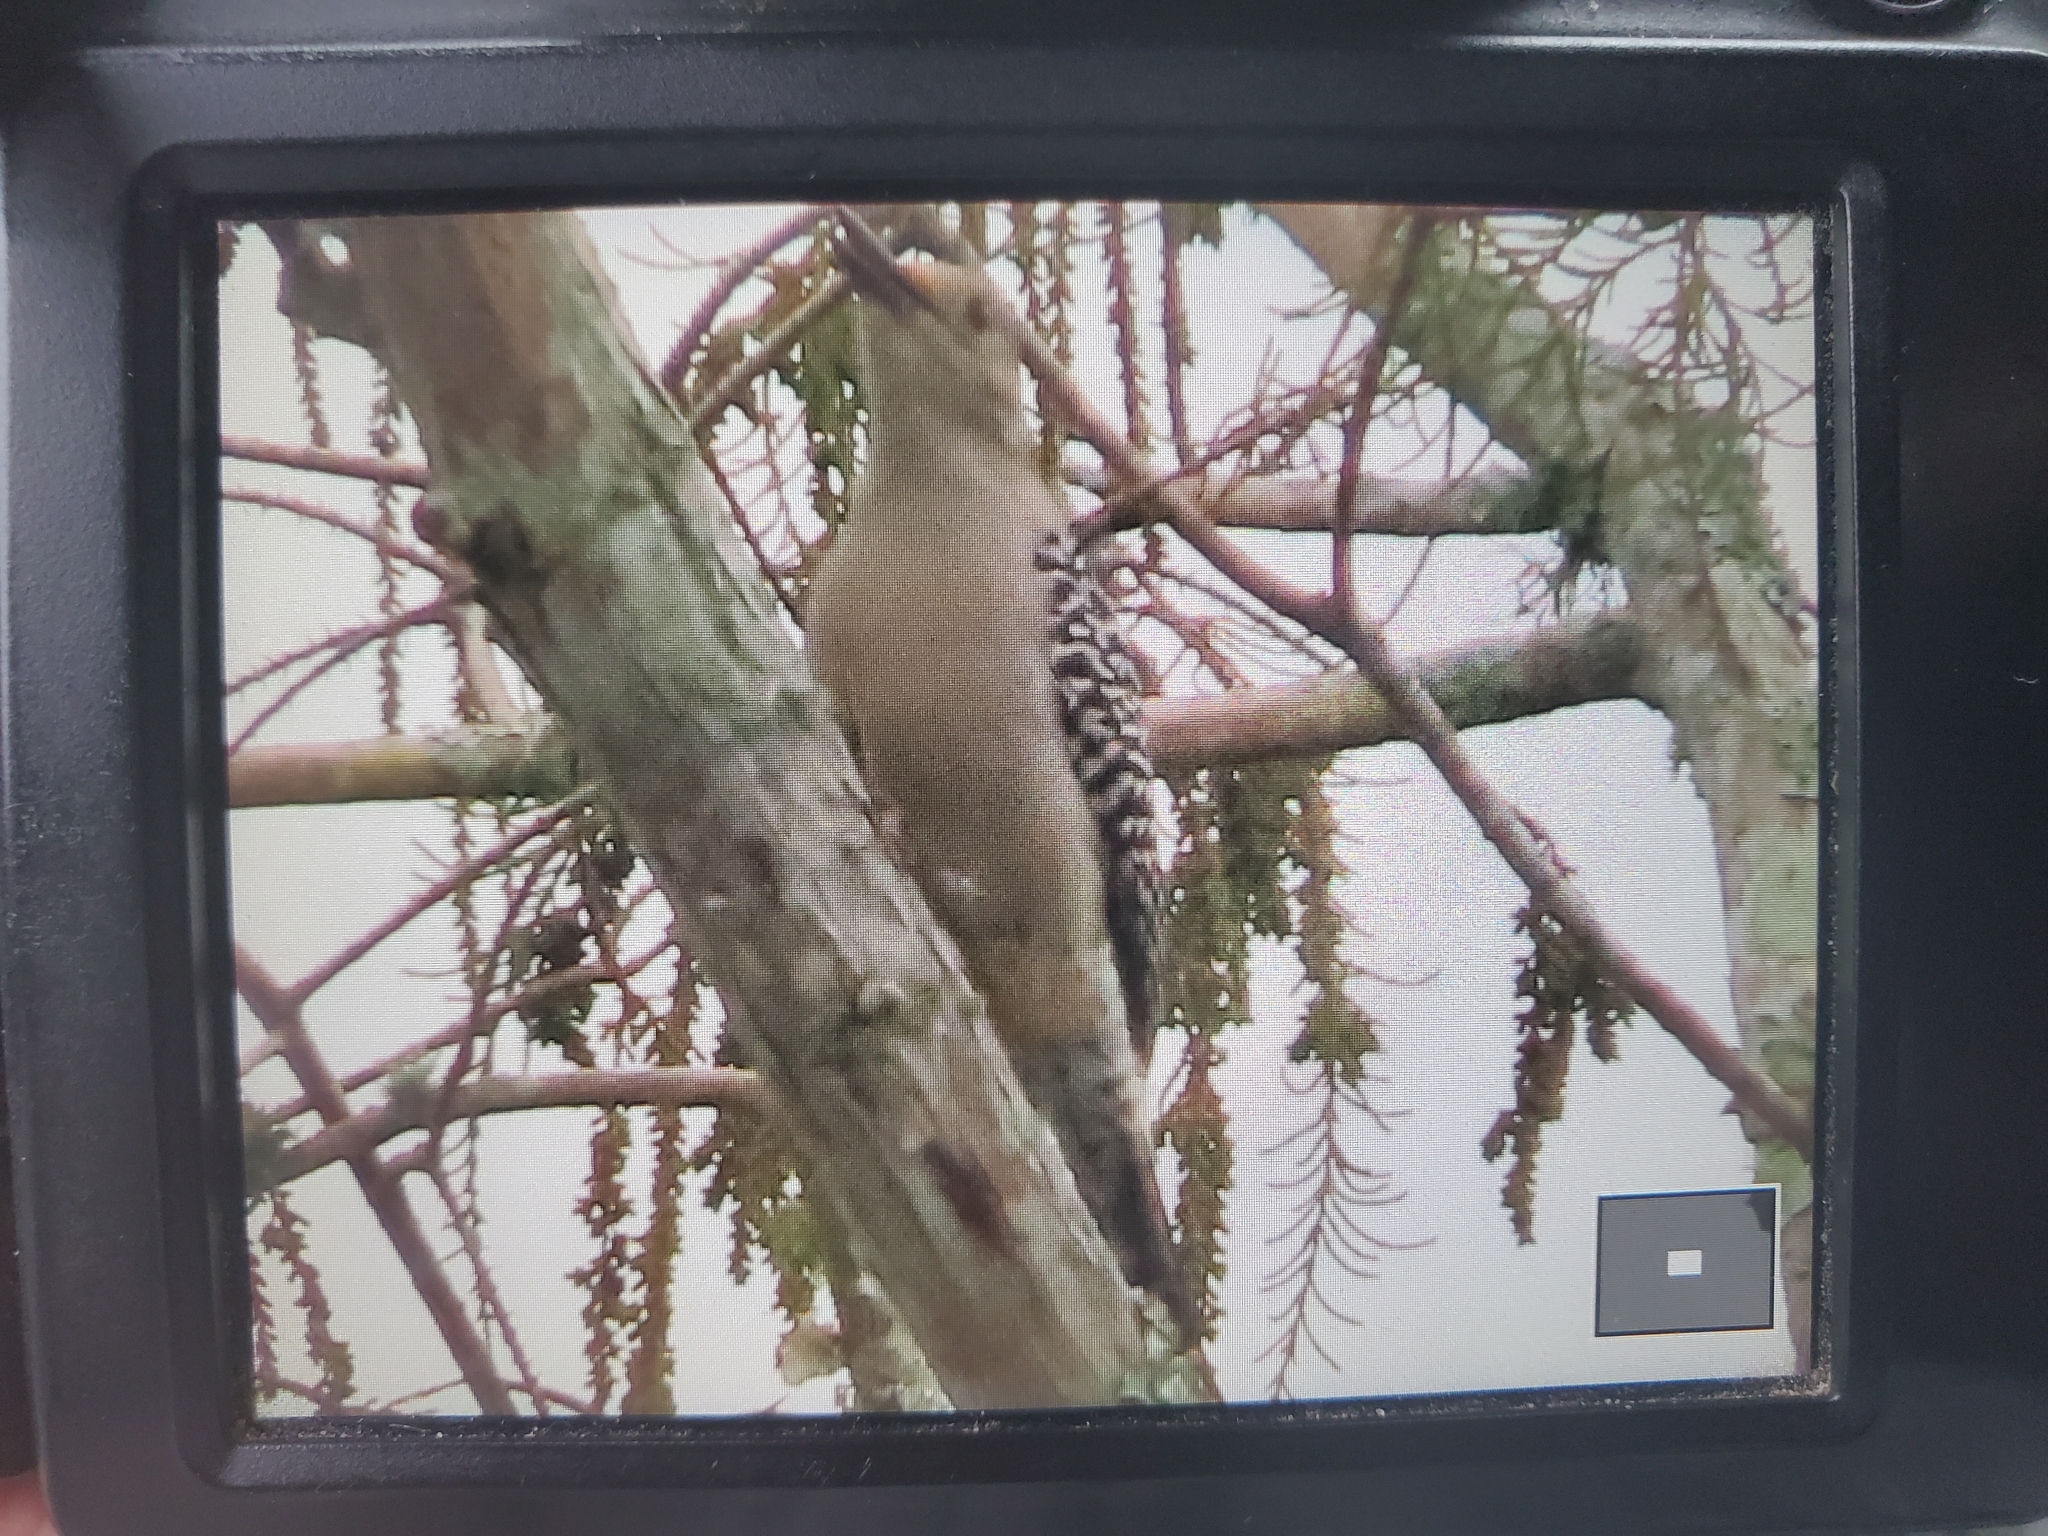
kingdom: Animalia
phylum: Chordata
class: Aves
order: Piciformes
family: Picidae
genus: Melanerpes
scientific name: Melanerpes carolinus
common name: Red-bellied woodpecker
